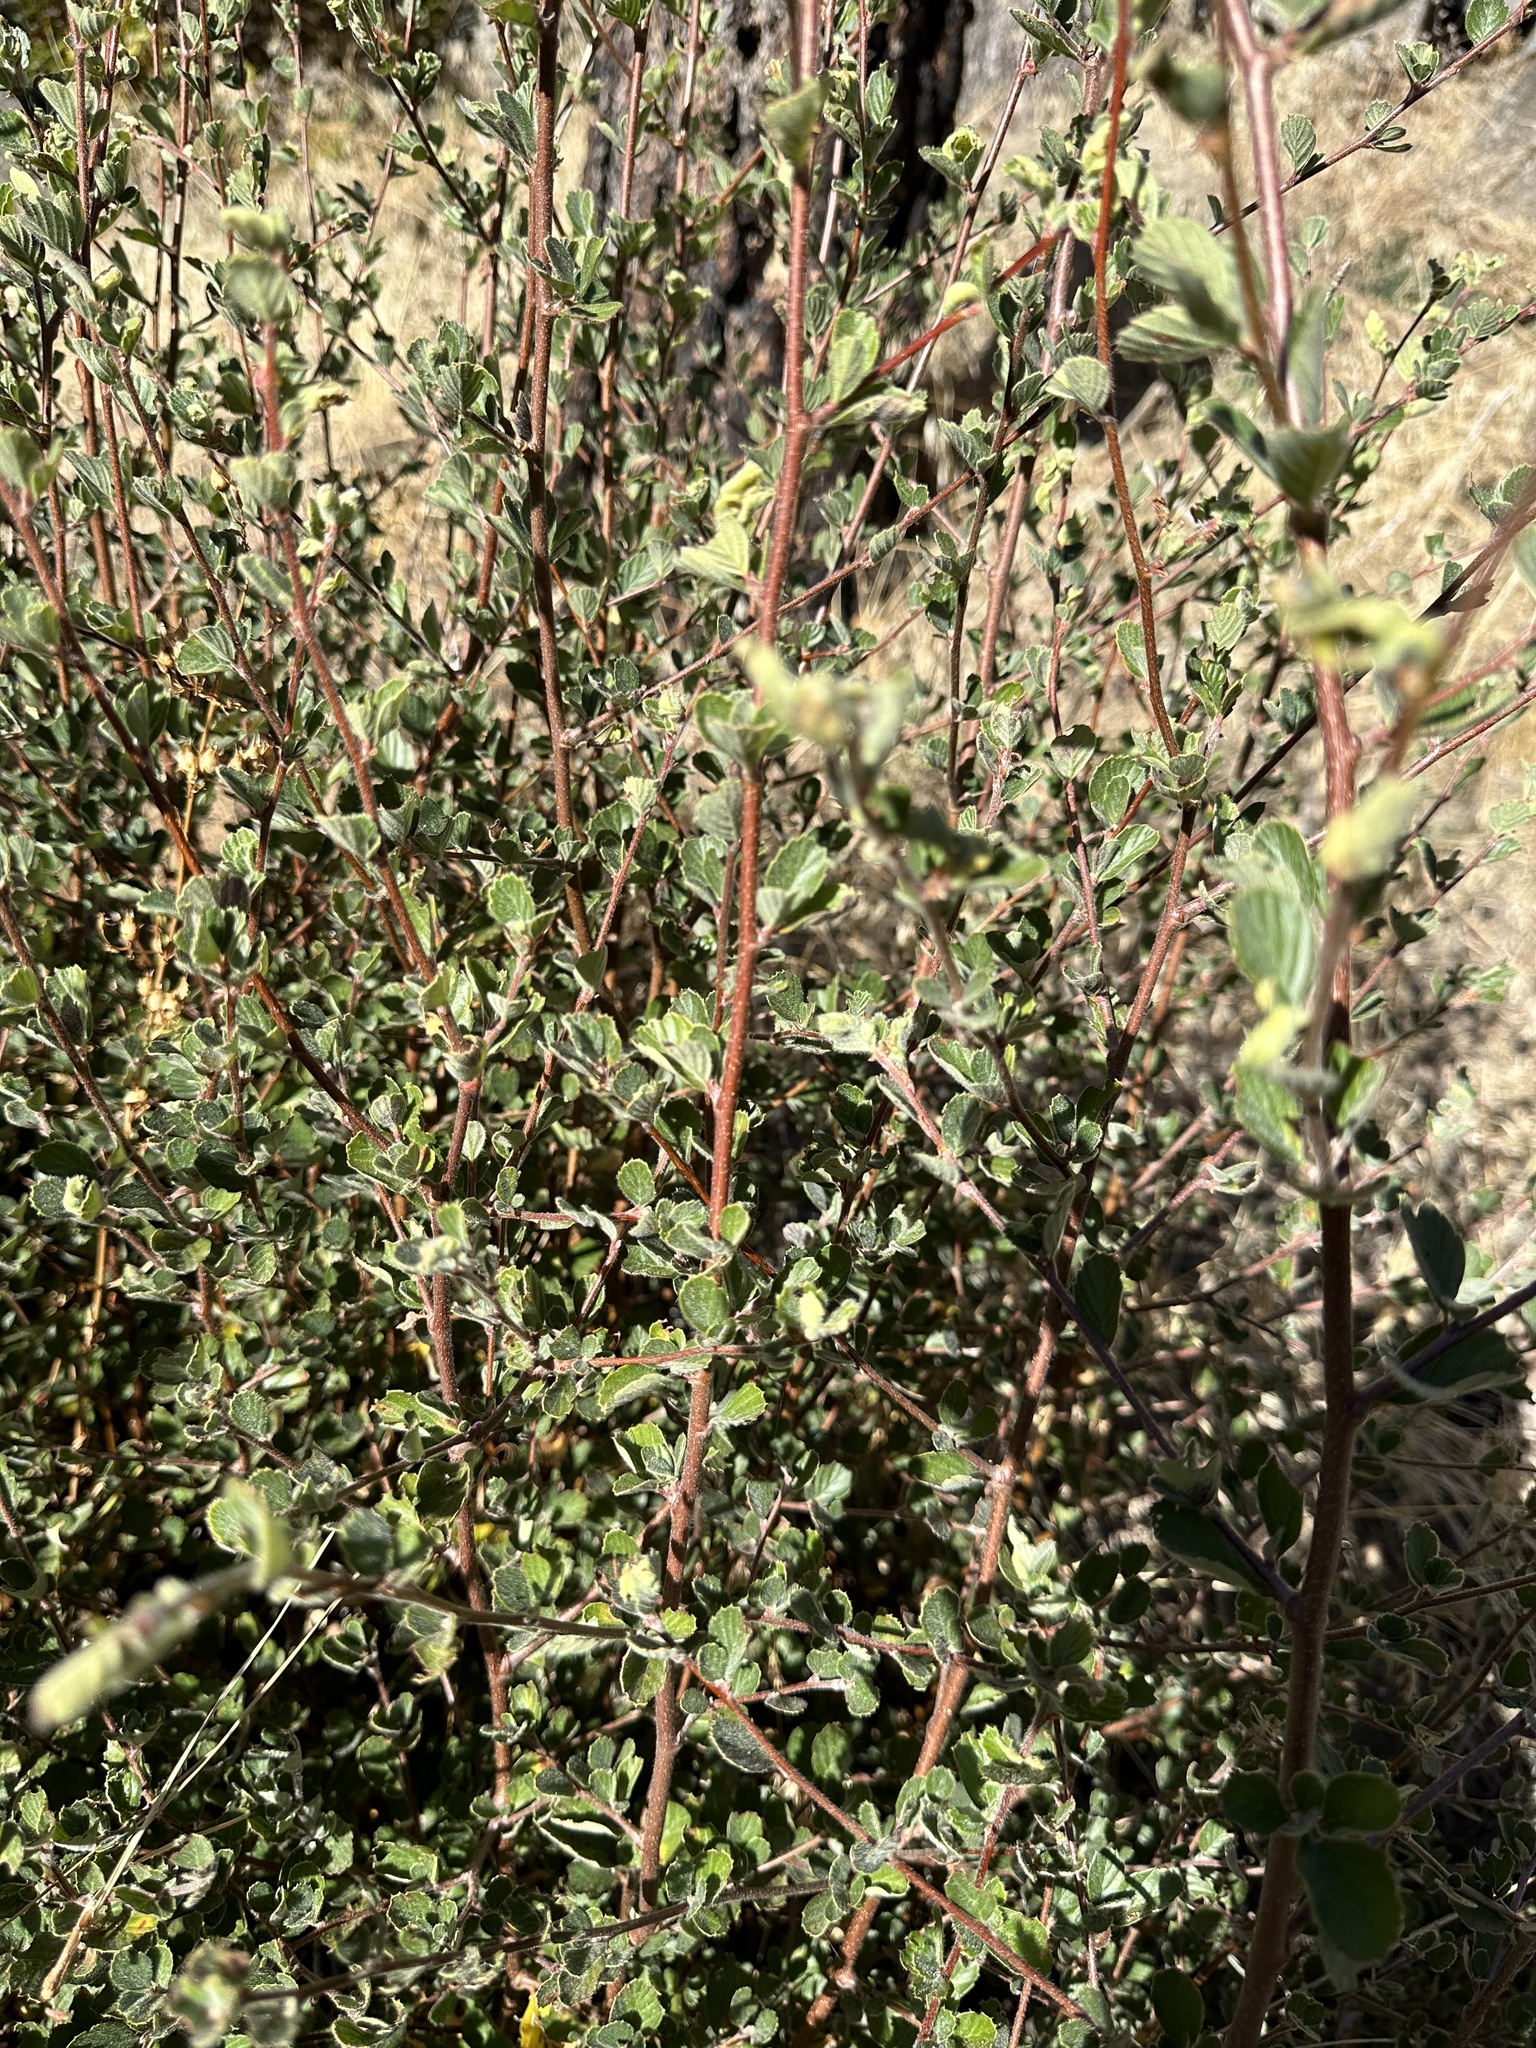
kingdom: Plantae
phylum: Tracheophyta
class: Magnoliopsida
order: Rosales
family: Rosaceae
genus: Cercocarpus
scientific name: Cercocarpus betuloides
